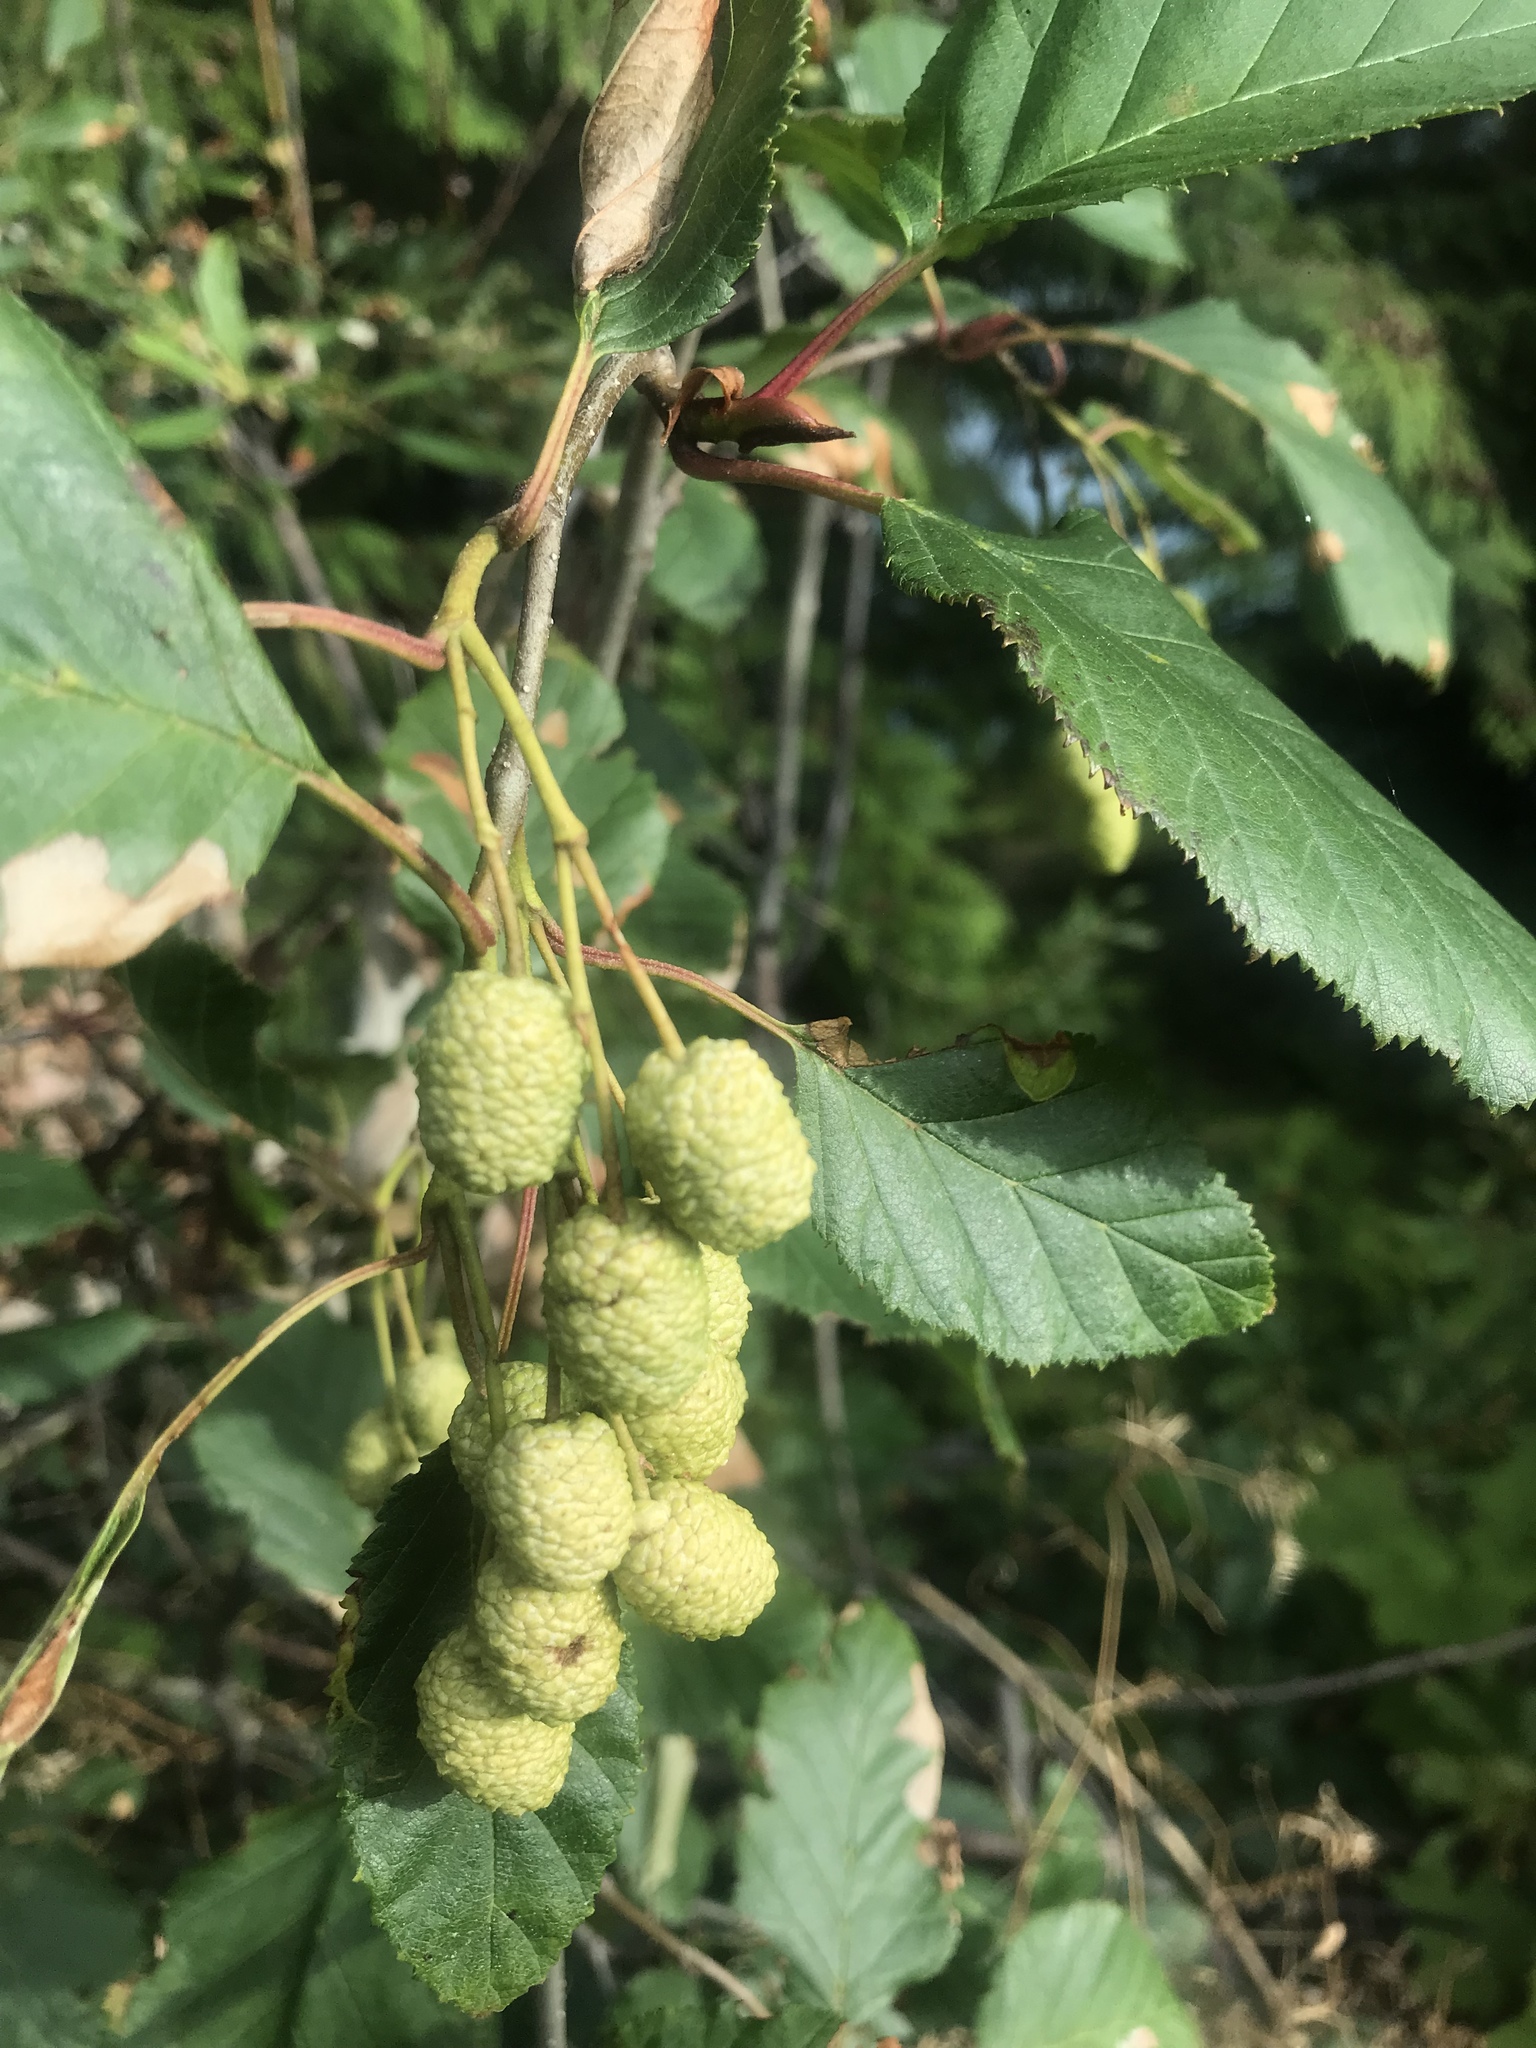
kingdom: Plantae
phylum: Tracheophyta
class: Magnoliopsida
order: Fagales
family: Betulaceae
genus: Alnus
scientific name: Alnus alnobetula
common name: Green alder
